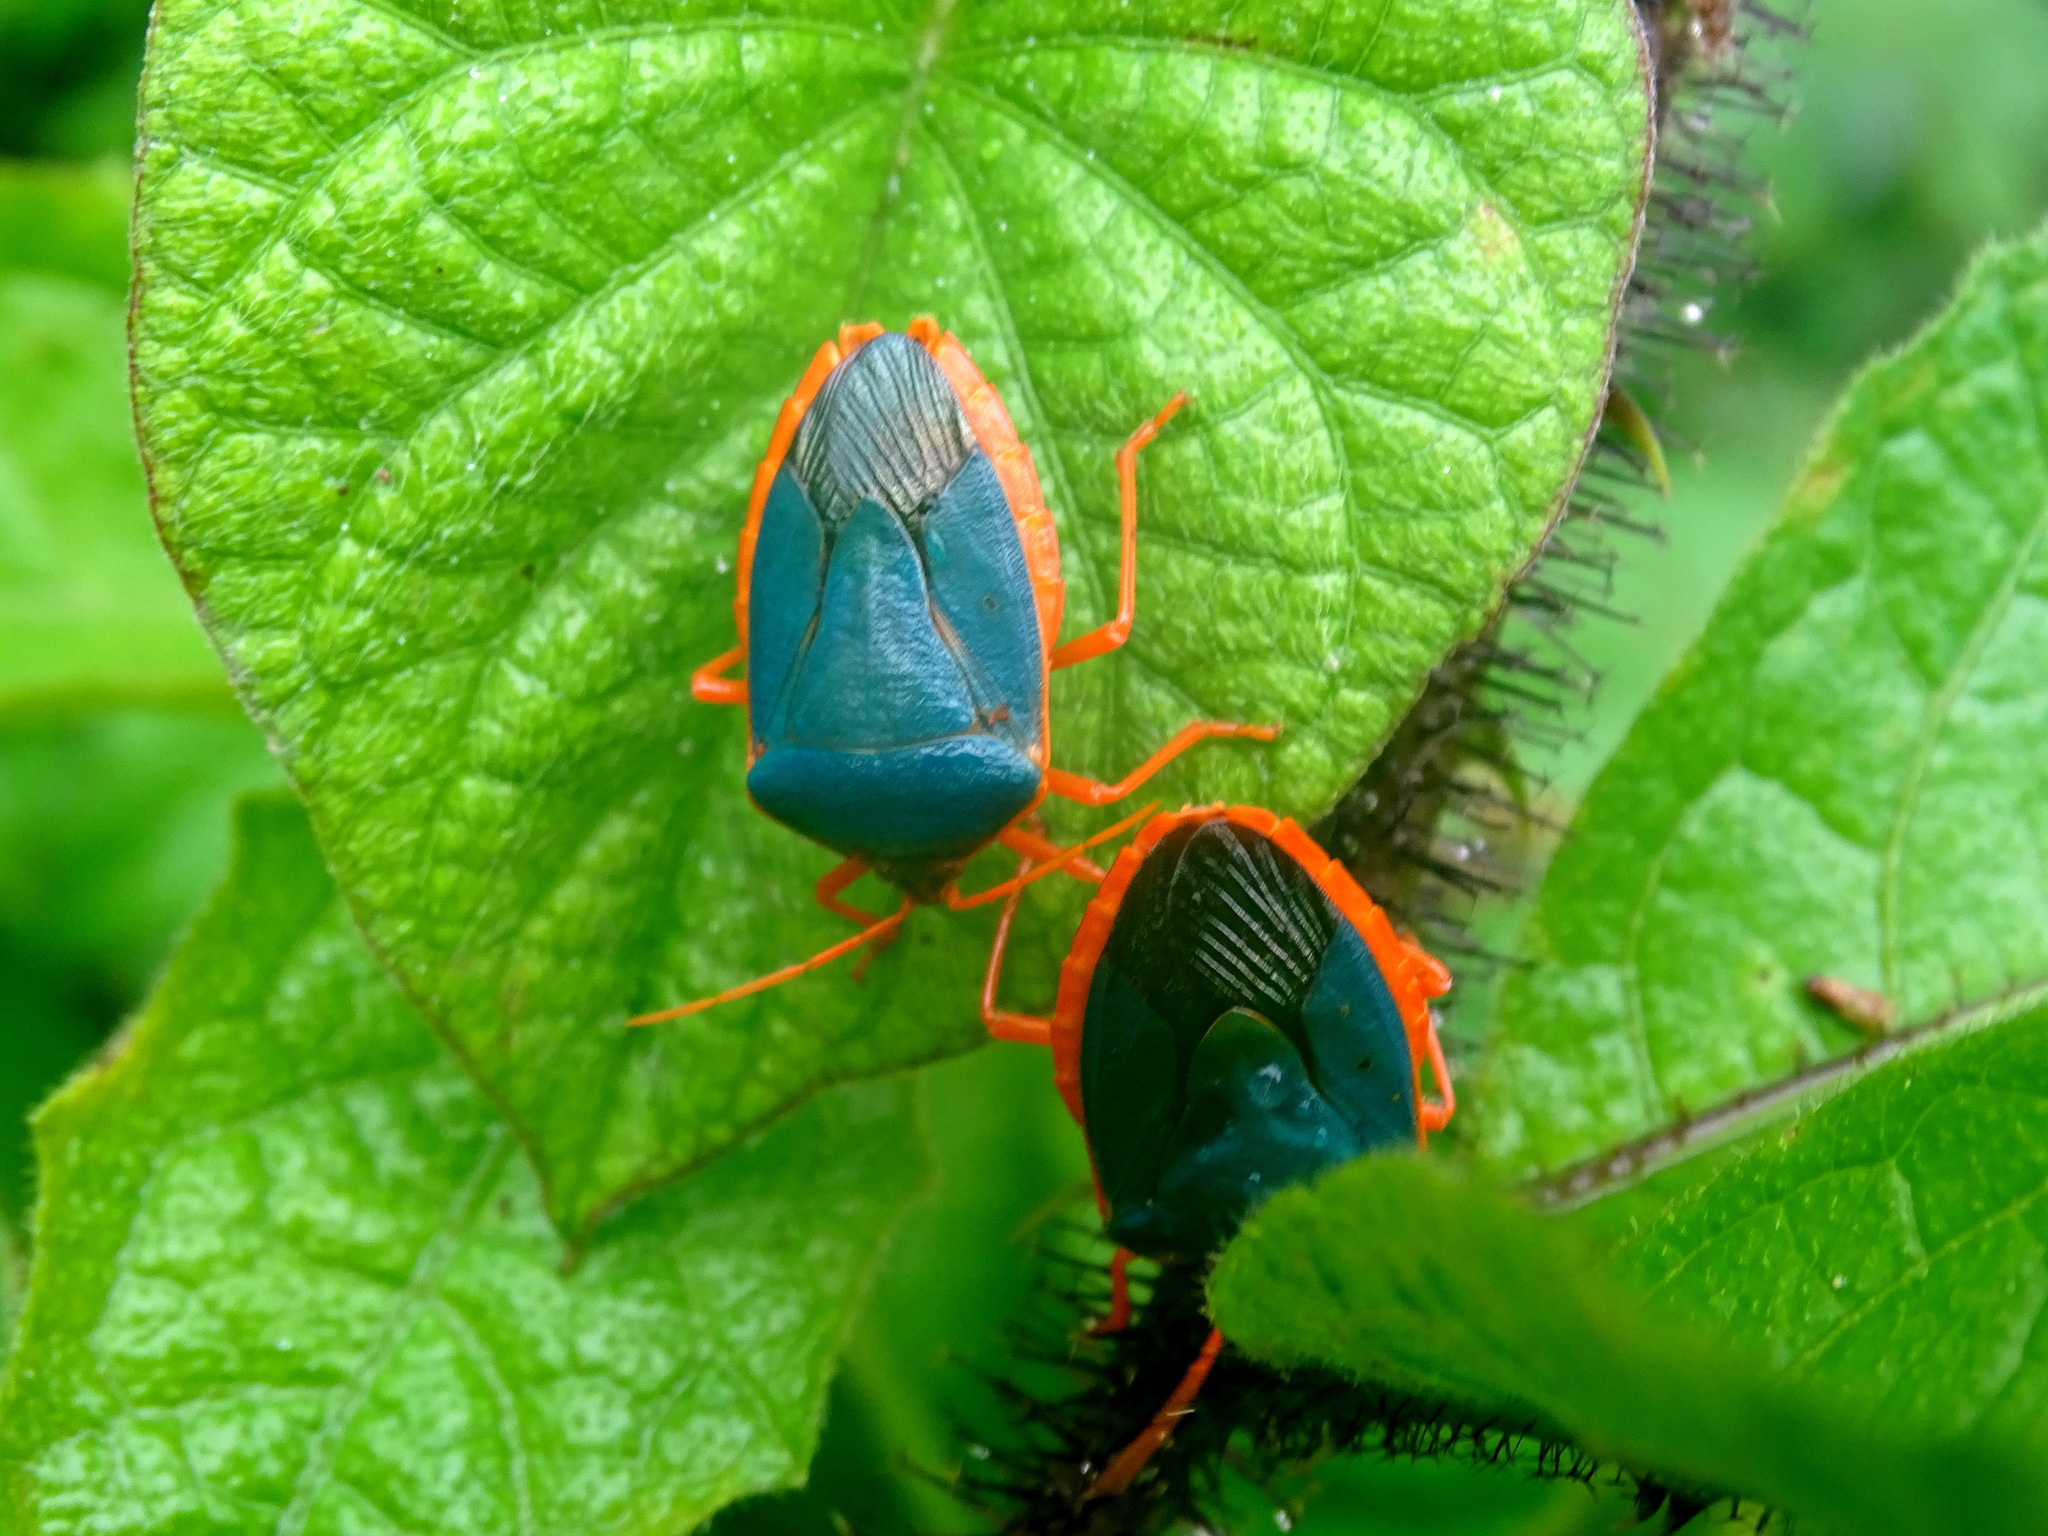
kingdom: Animalia
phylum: Arthropoda
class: Insecta
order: Hemiptera
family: Pentatomidae
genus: Edessa
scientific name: Edessa rufomarginata
